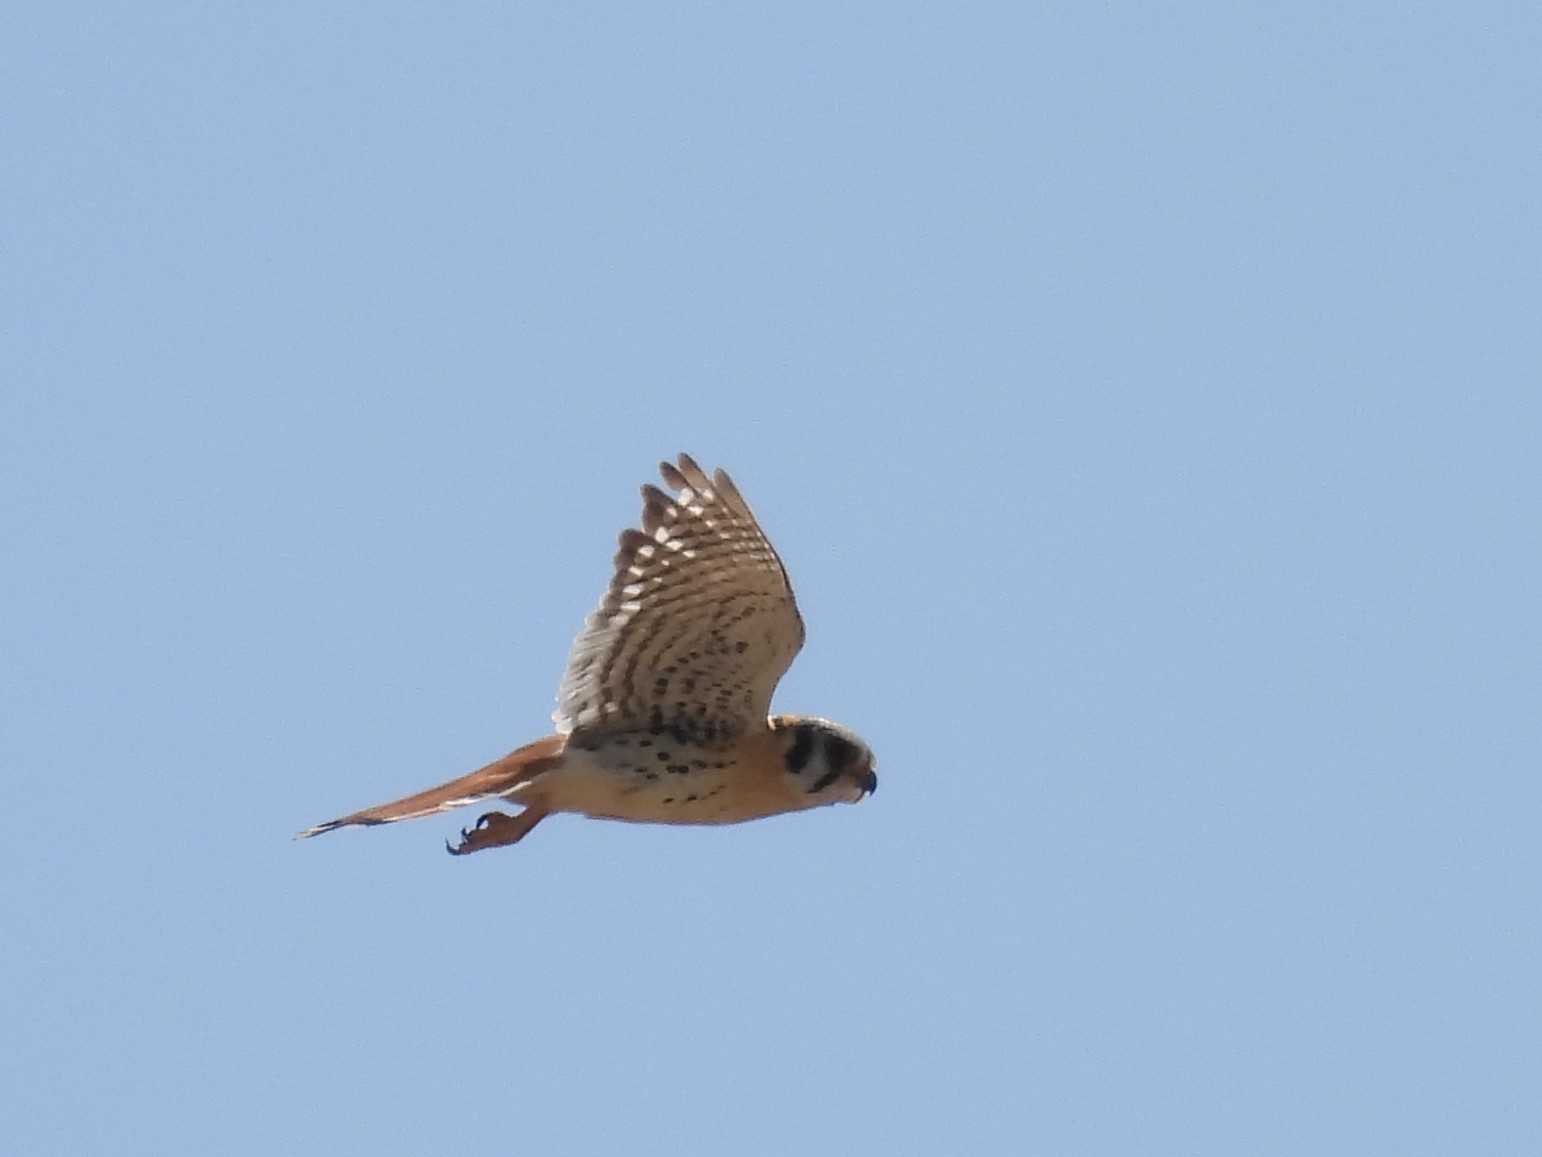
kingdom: Animalia
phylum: Chordata
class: Aves
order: Falconiformes
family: Falconidae
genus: Falco
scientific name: Falco sparverius
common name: American kestrel
